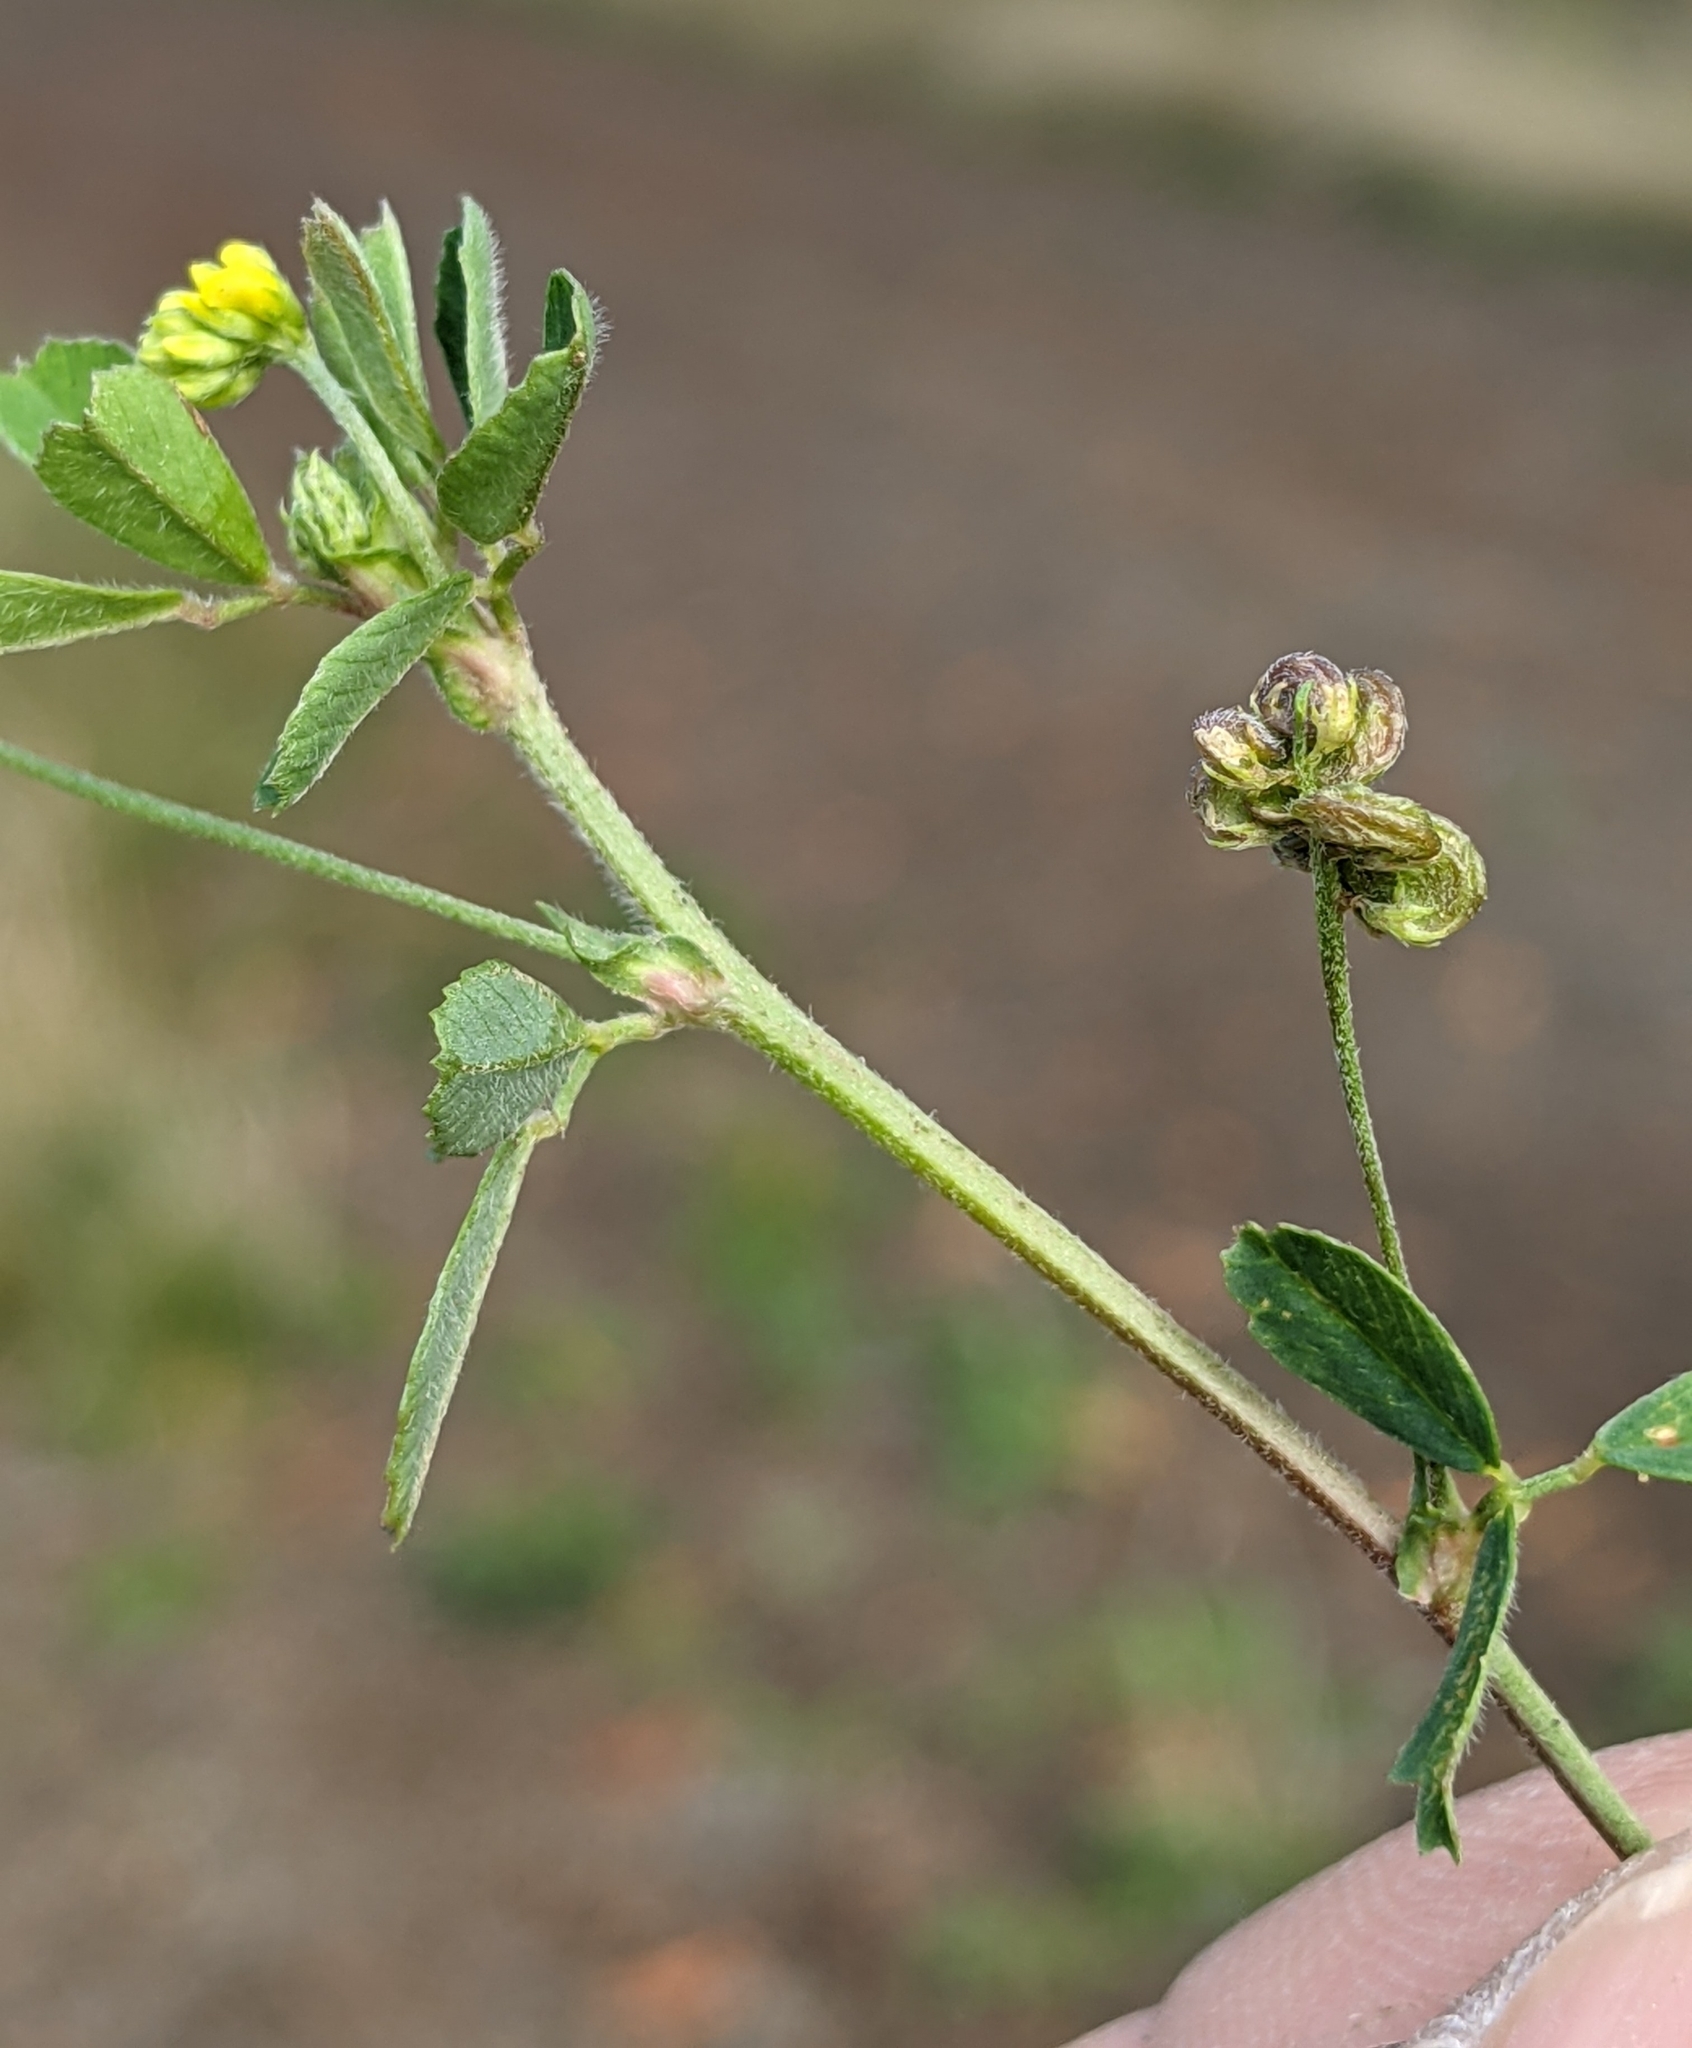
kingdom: Plantae
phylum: Tracheophyta
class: Magnoliopsida
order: Fabales
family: Fabaceae
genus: Medicago
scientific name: Medicago lupulina
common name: Black medick
